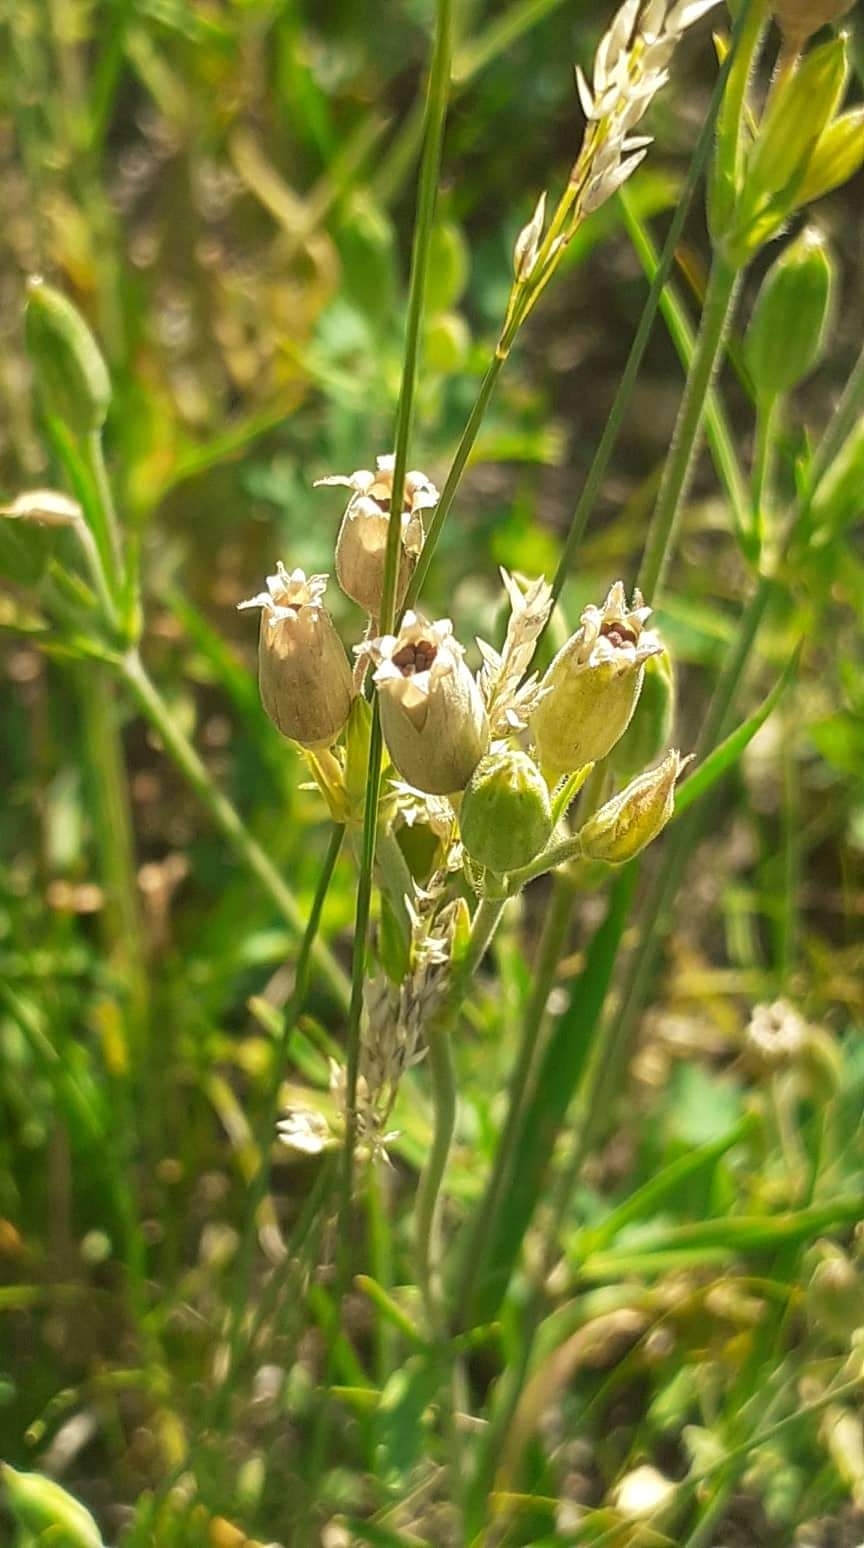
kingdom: Plantae
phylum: Tracheophyta
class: Magnoliopsida
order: Caryophyllales
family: Caryophyllaceae
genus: Silene
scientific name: Silene aprica
